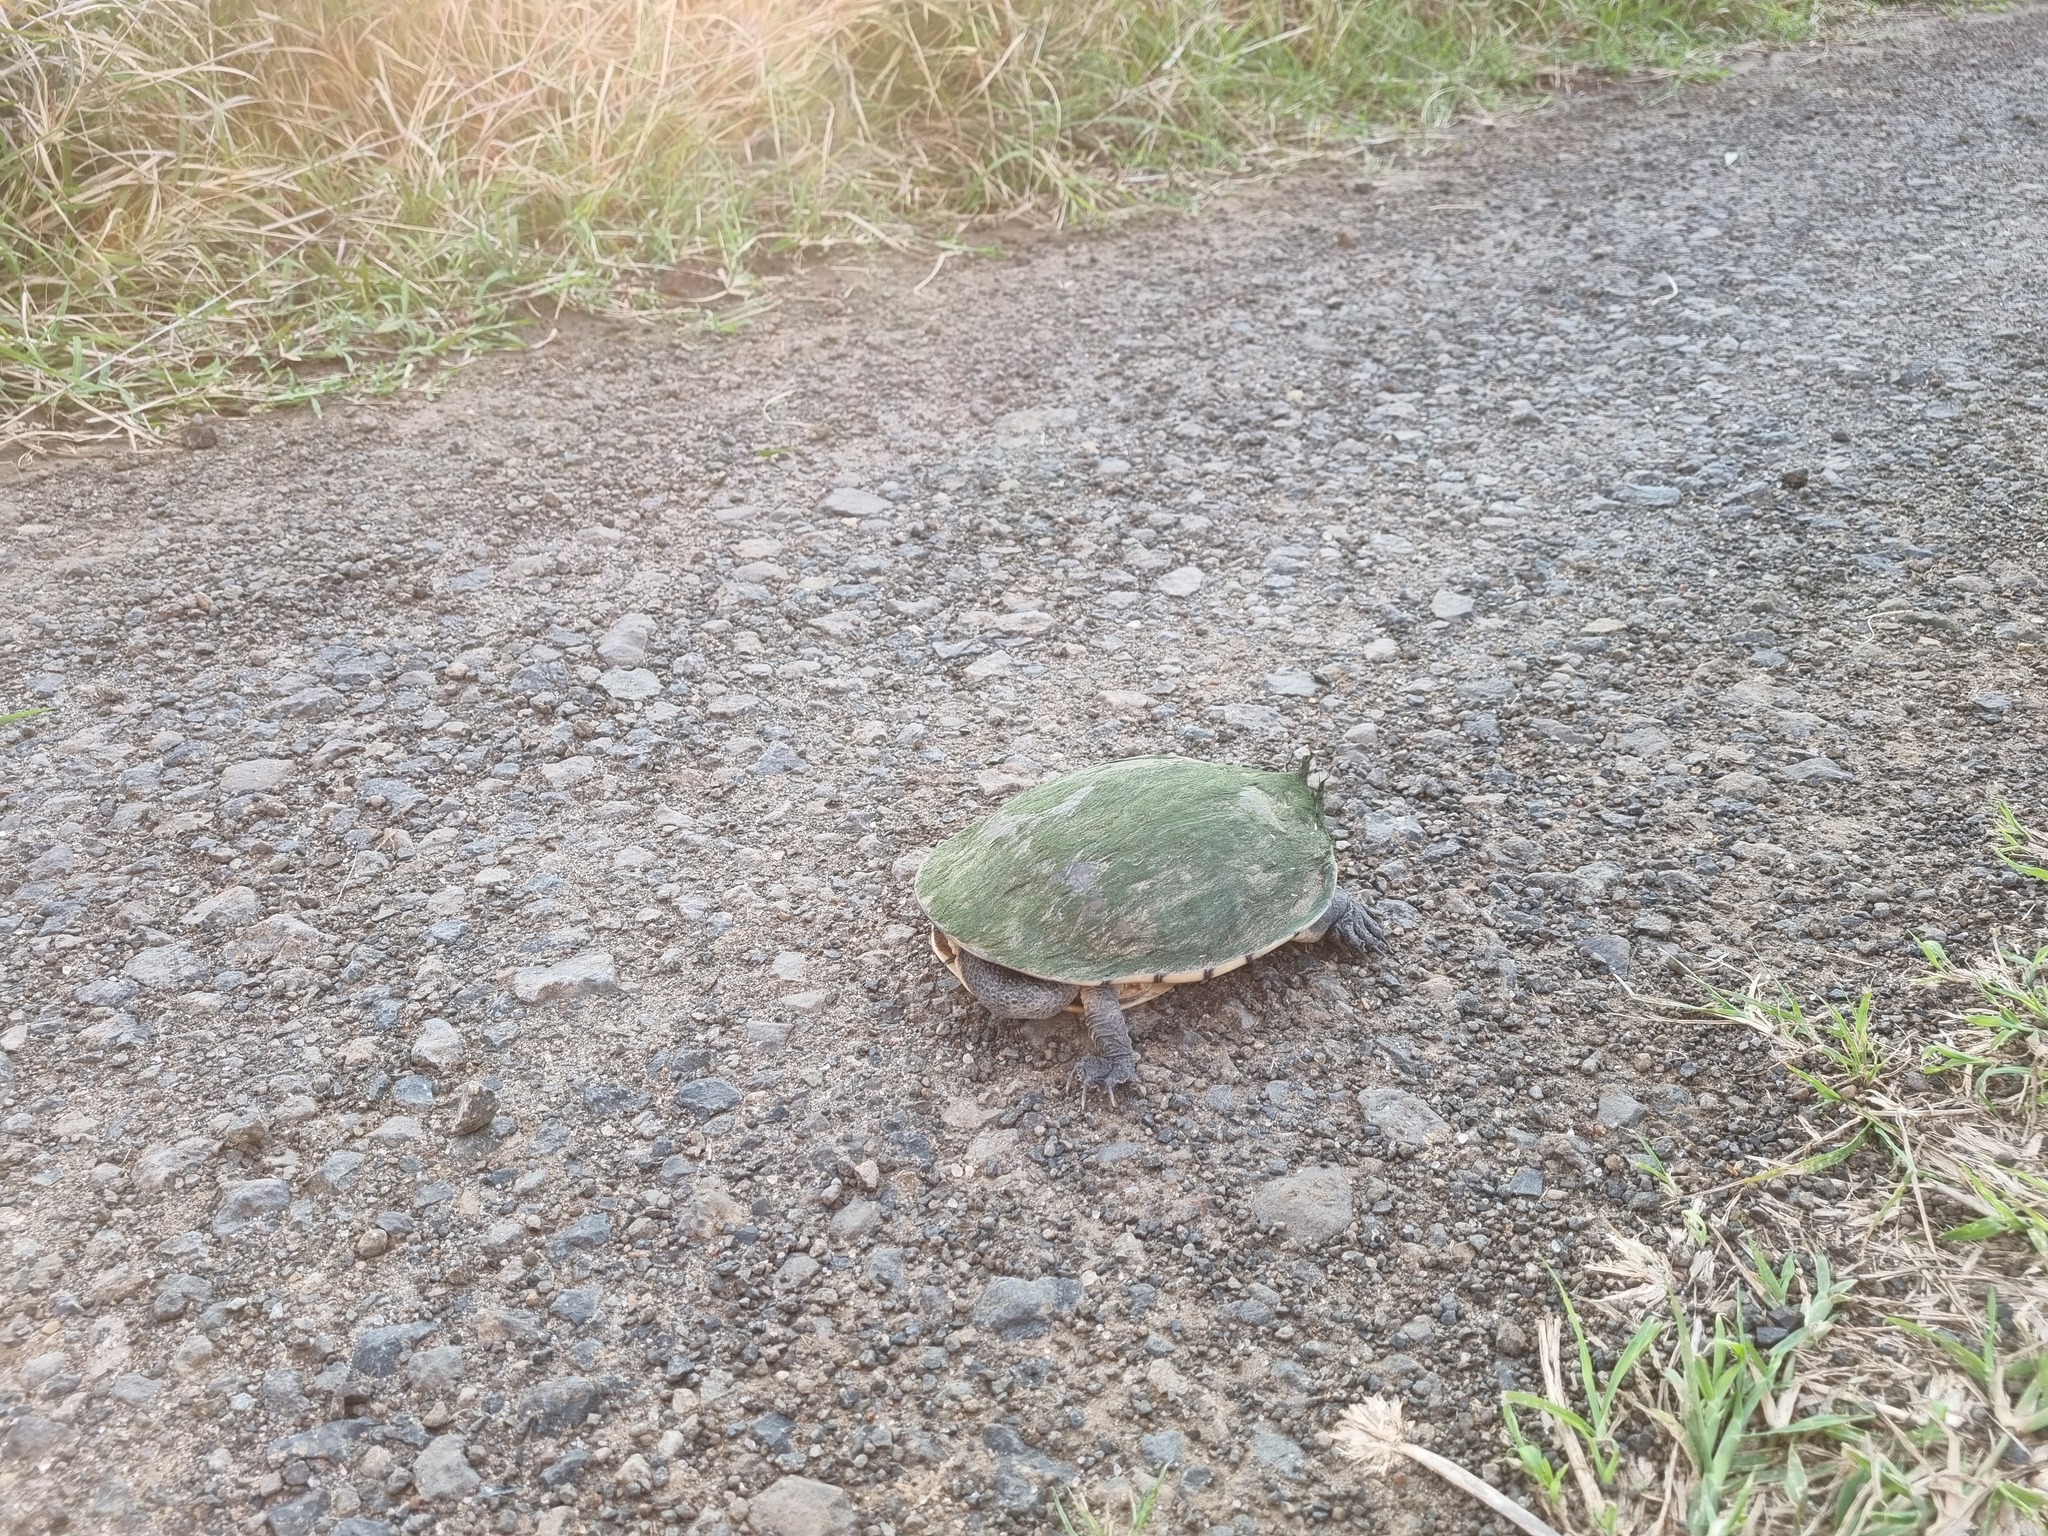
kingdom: Animalia
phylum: Chordata
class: Testudines
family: Chelidae
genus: Chelodina
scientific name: Chelodina longicollis
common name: Eastern snake-necked turtle
